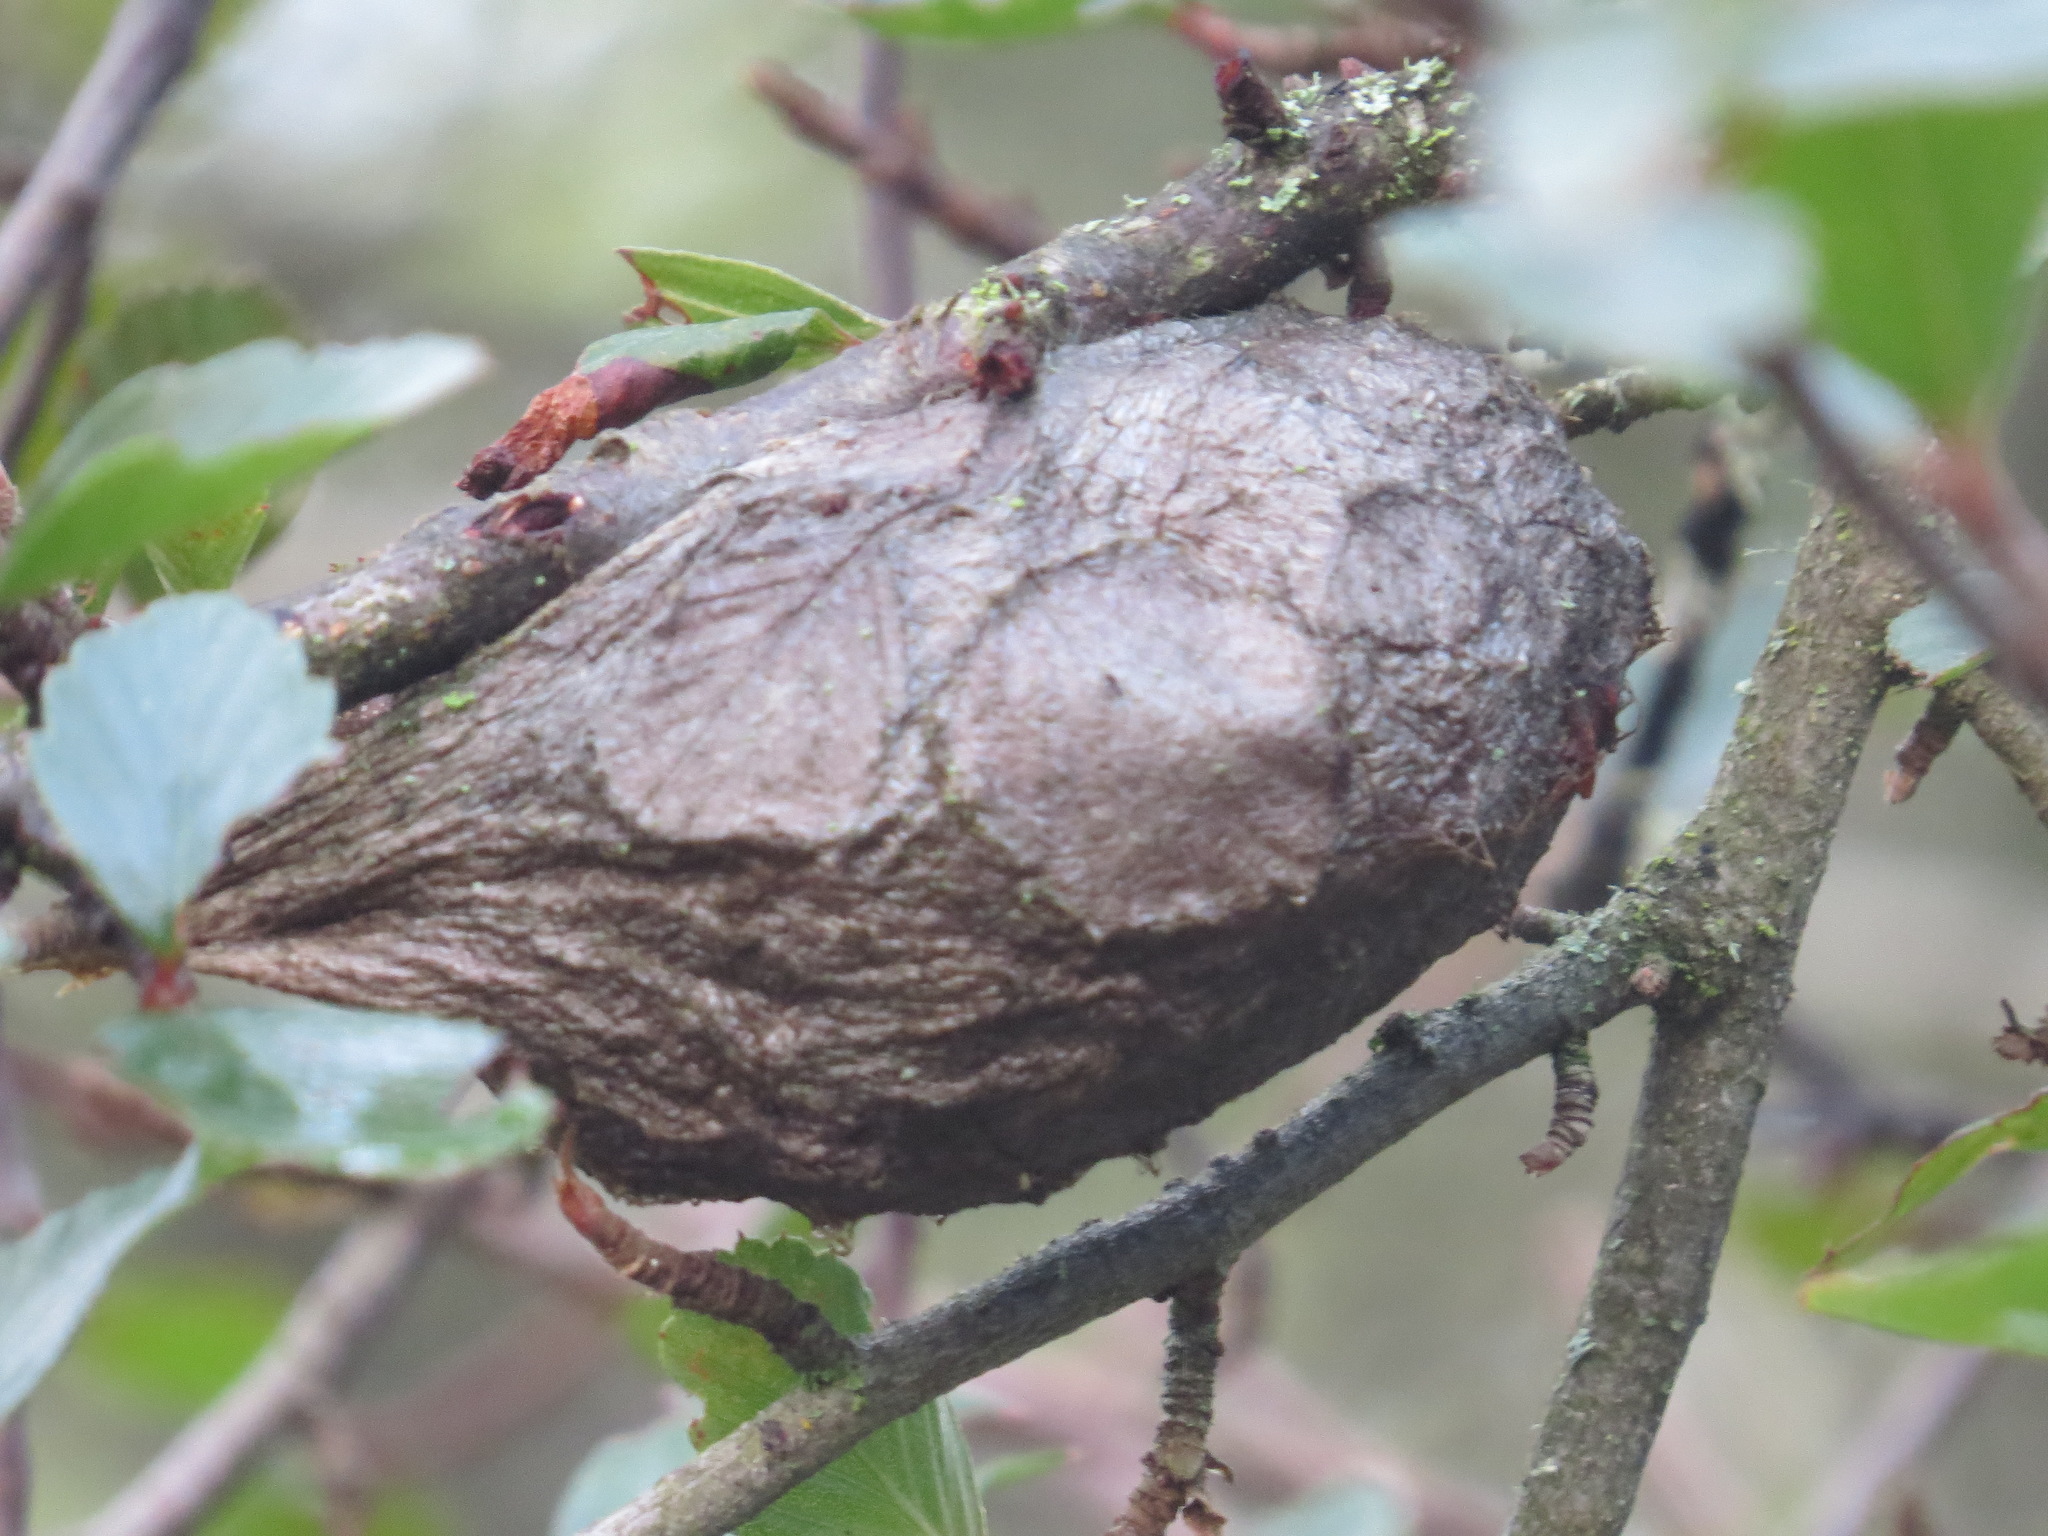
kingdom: Animalia
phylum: Arthropoda
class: Insecta
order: Lepidoptera
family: Saturniidae
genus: Hyalophora
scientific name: Hyalophora euryalus
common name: Ceanothus silkmoth
